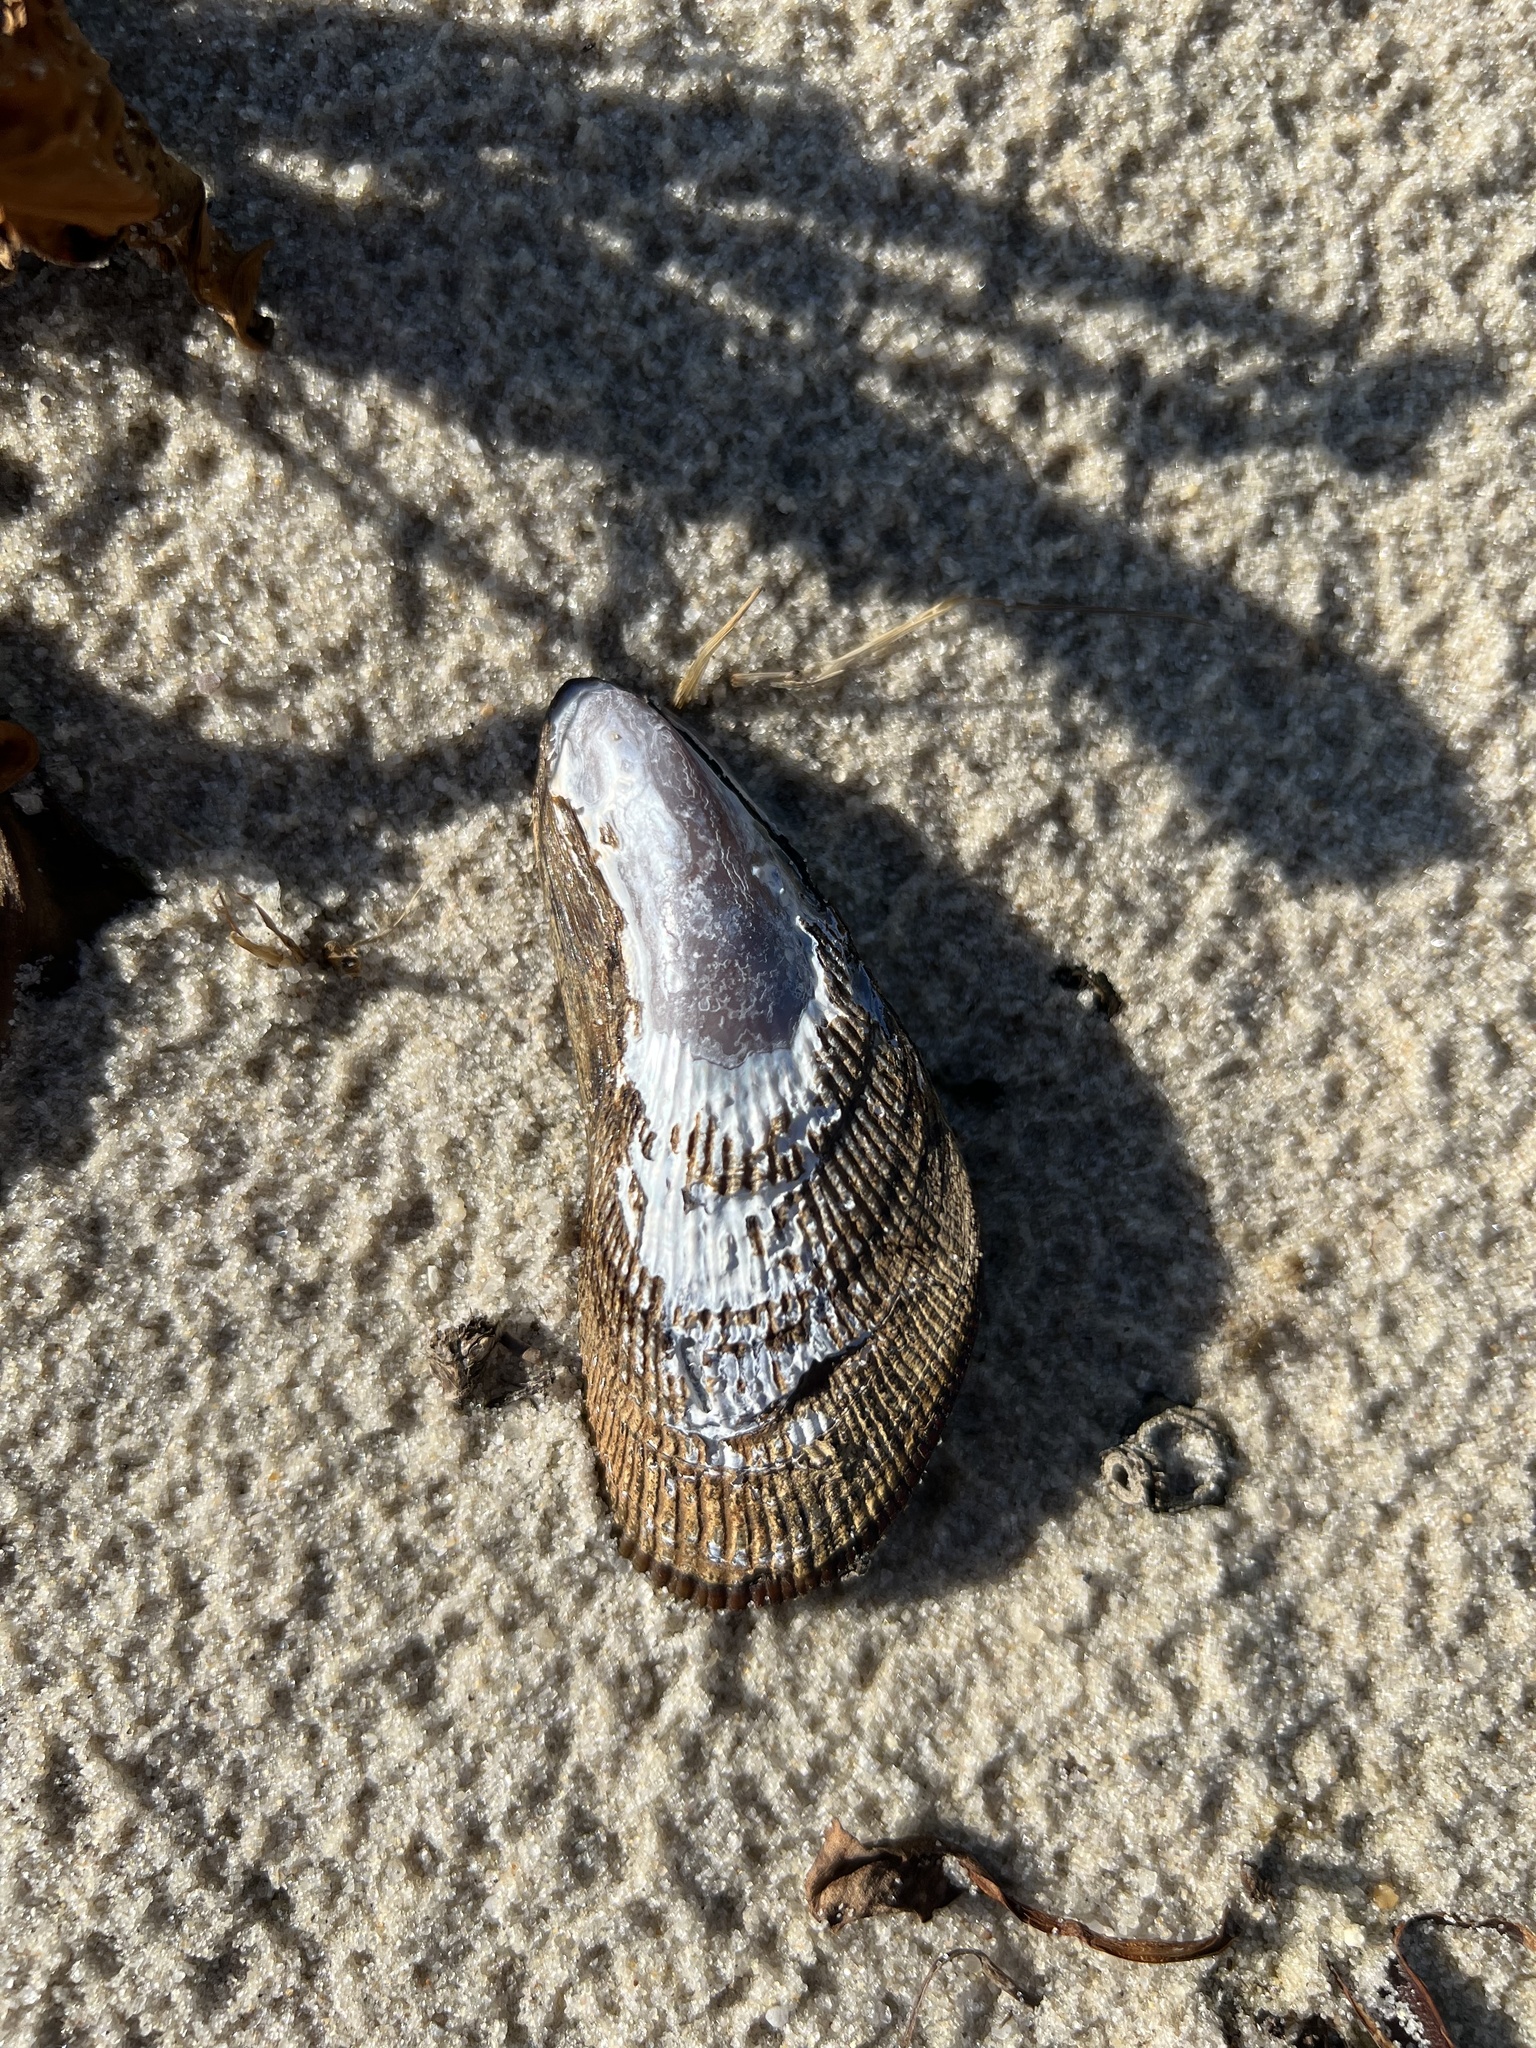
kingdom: Animalia
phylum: Mollusca
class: Bivalvia
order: Mytilida
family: Mytilidae
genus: Geukensia
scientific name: Geukensia demissa
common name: Ribbed mussel
